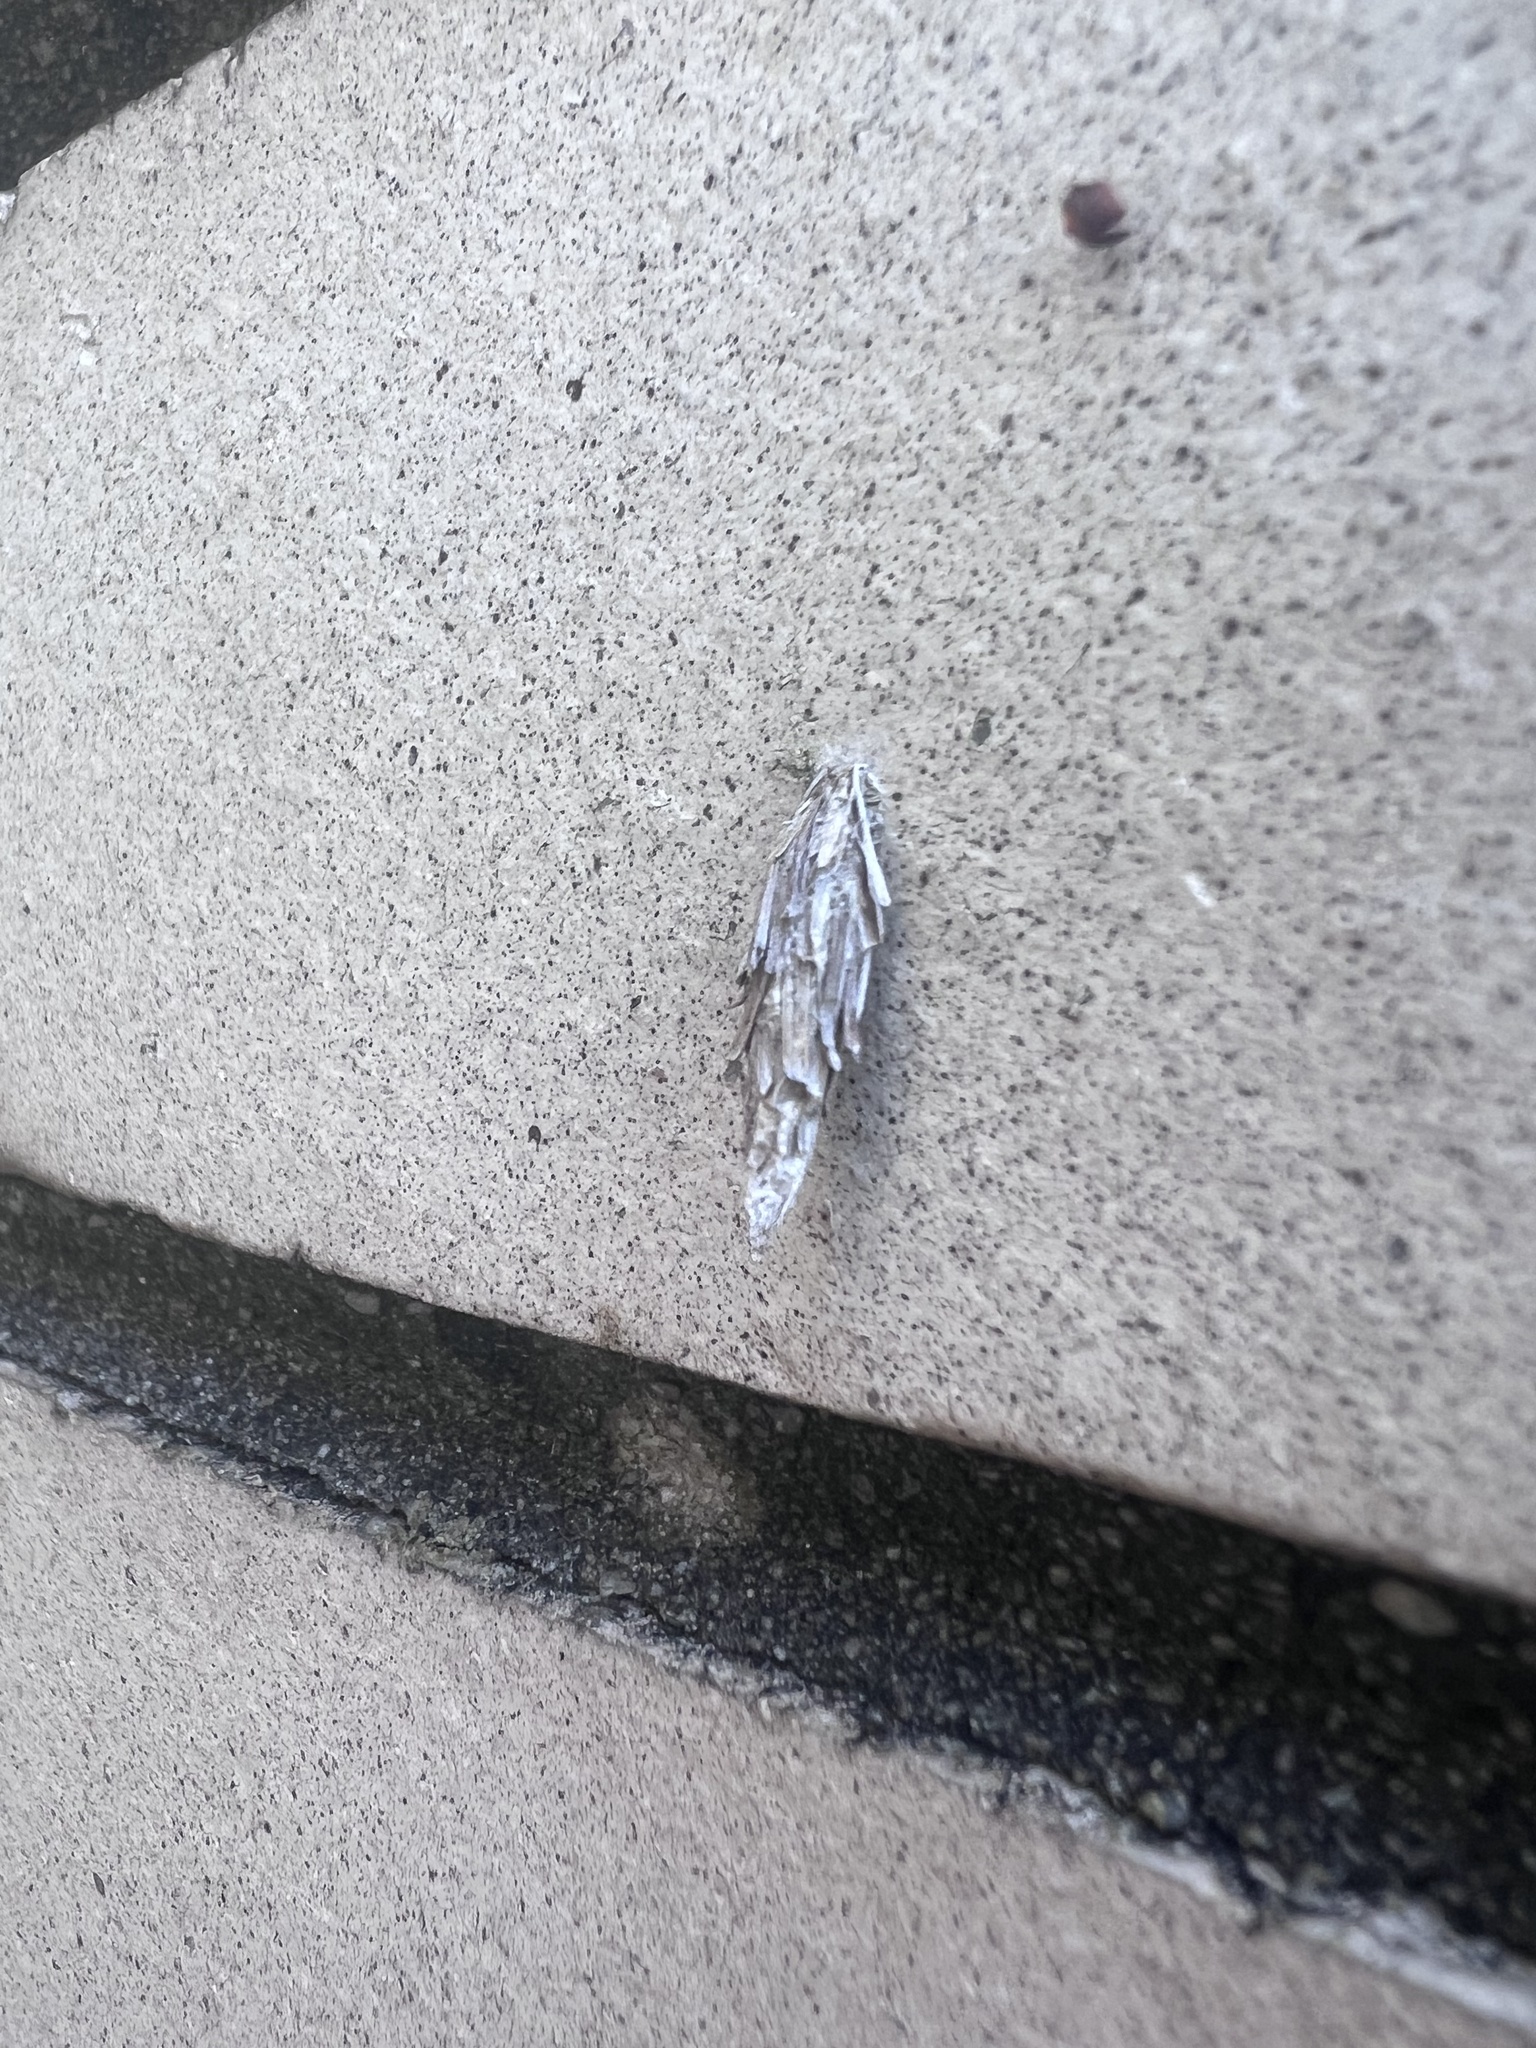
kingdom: Animalia
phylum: Arthropoda
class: Insecta
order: Lepidoptera
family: Psychidae
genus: Thyridopteryx
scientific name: Thyridopteryx ephemeraeformis
